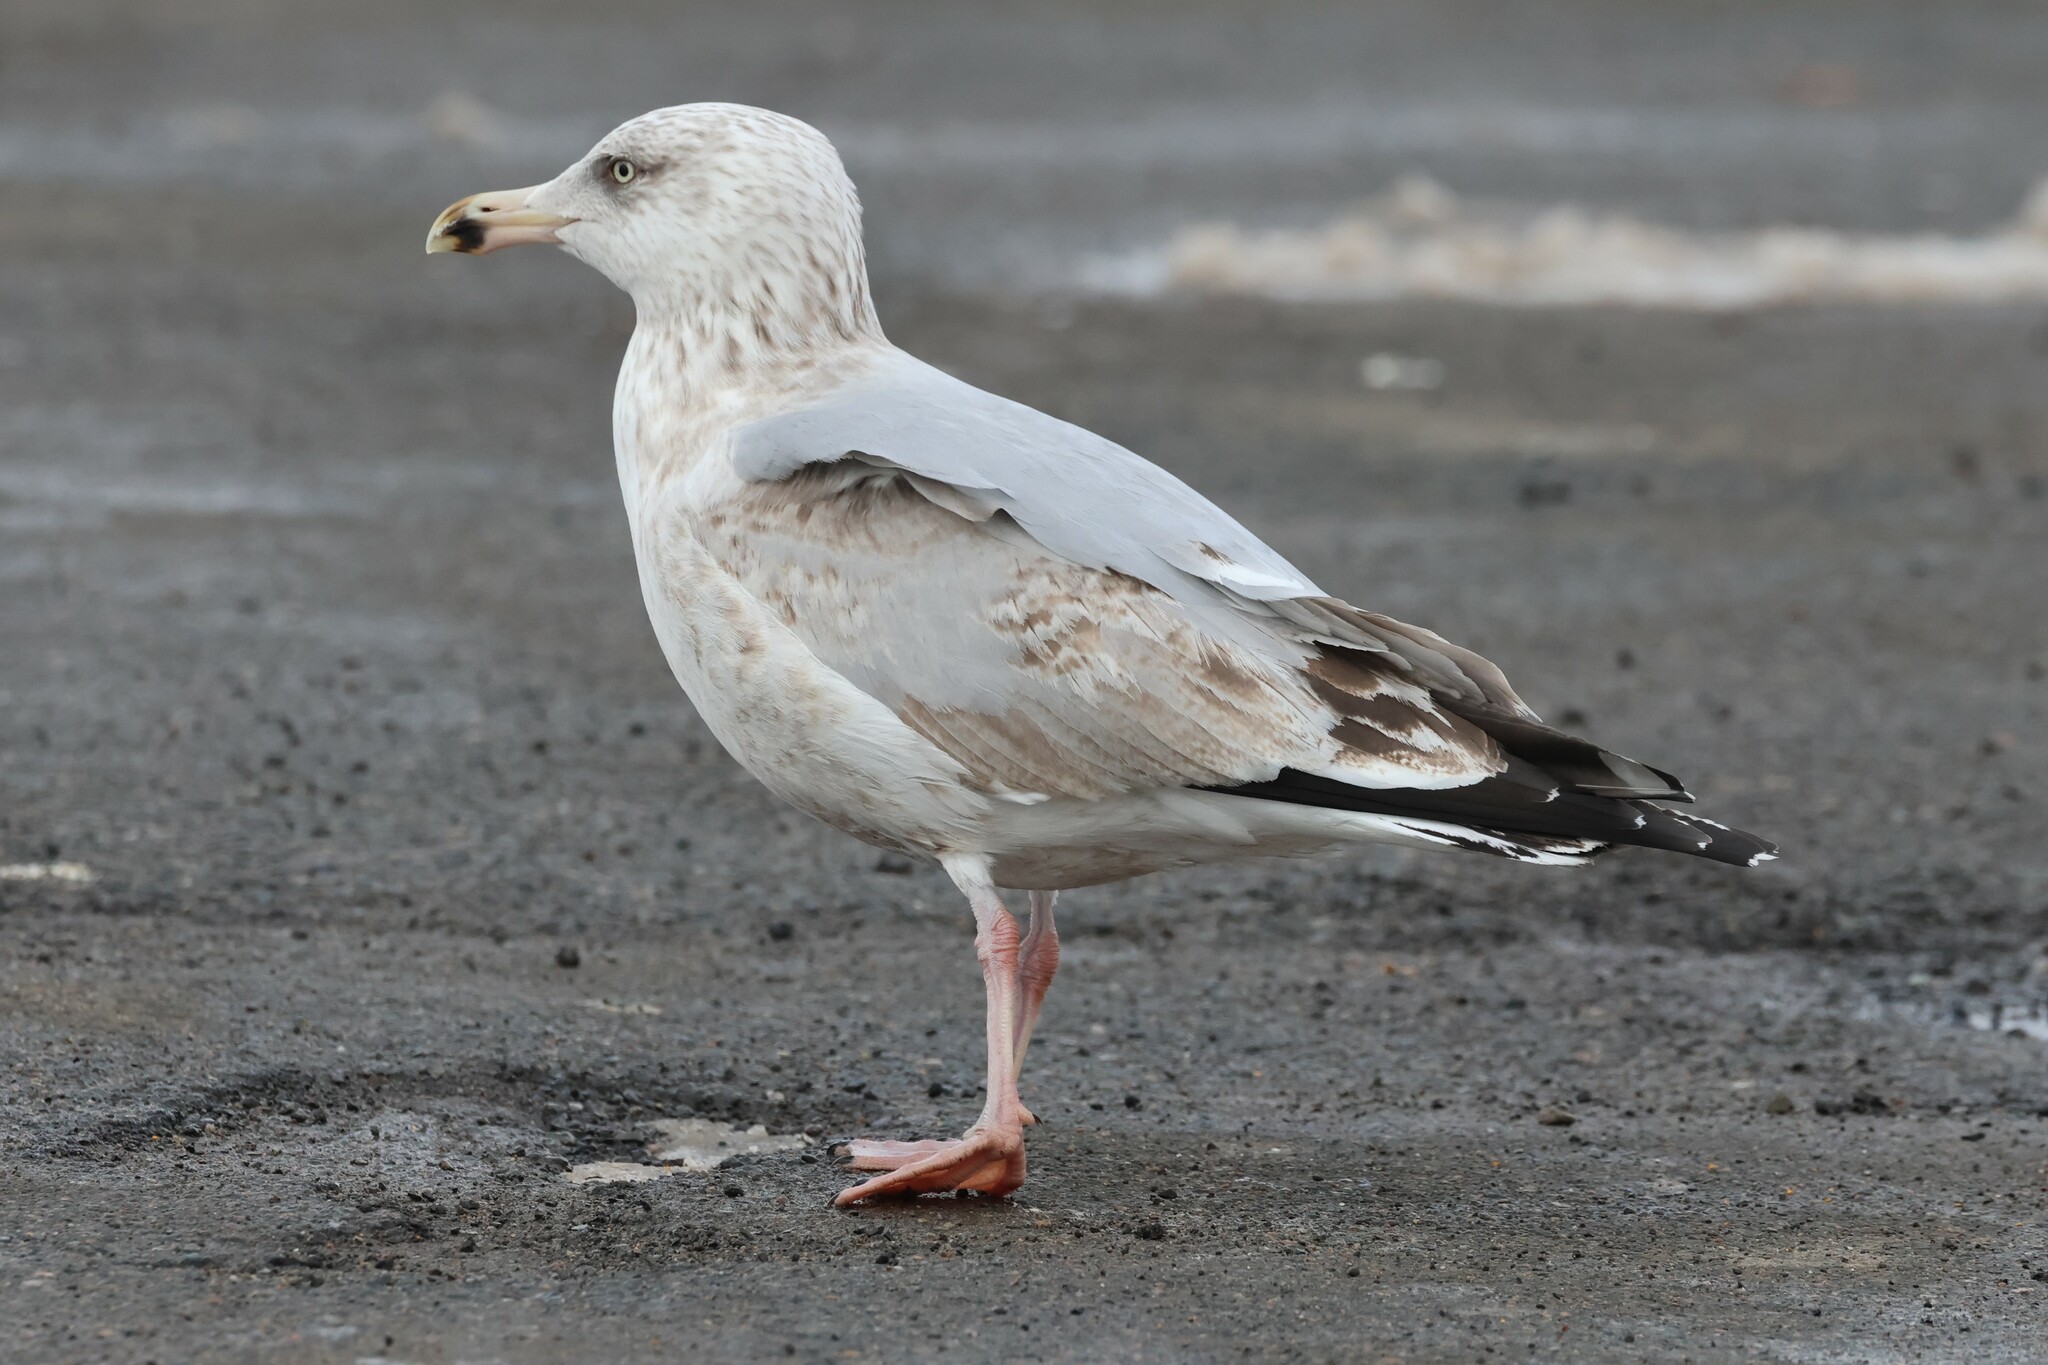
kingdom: Animalia
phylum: Chordata
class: Aves
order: Charadriiformes
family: Laridae
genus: Larus
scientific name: Larus argentatus
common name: Herring gull
